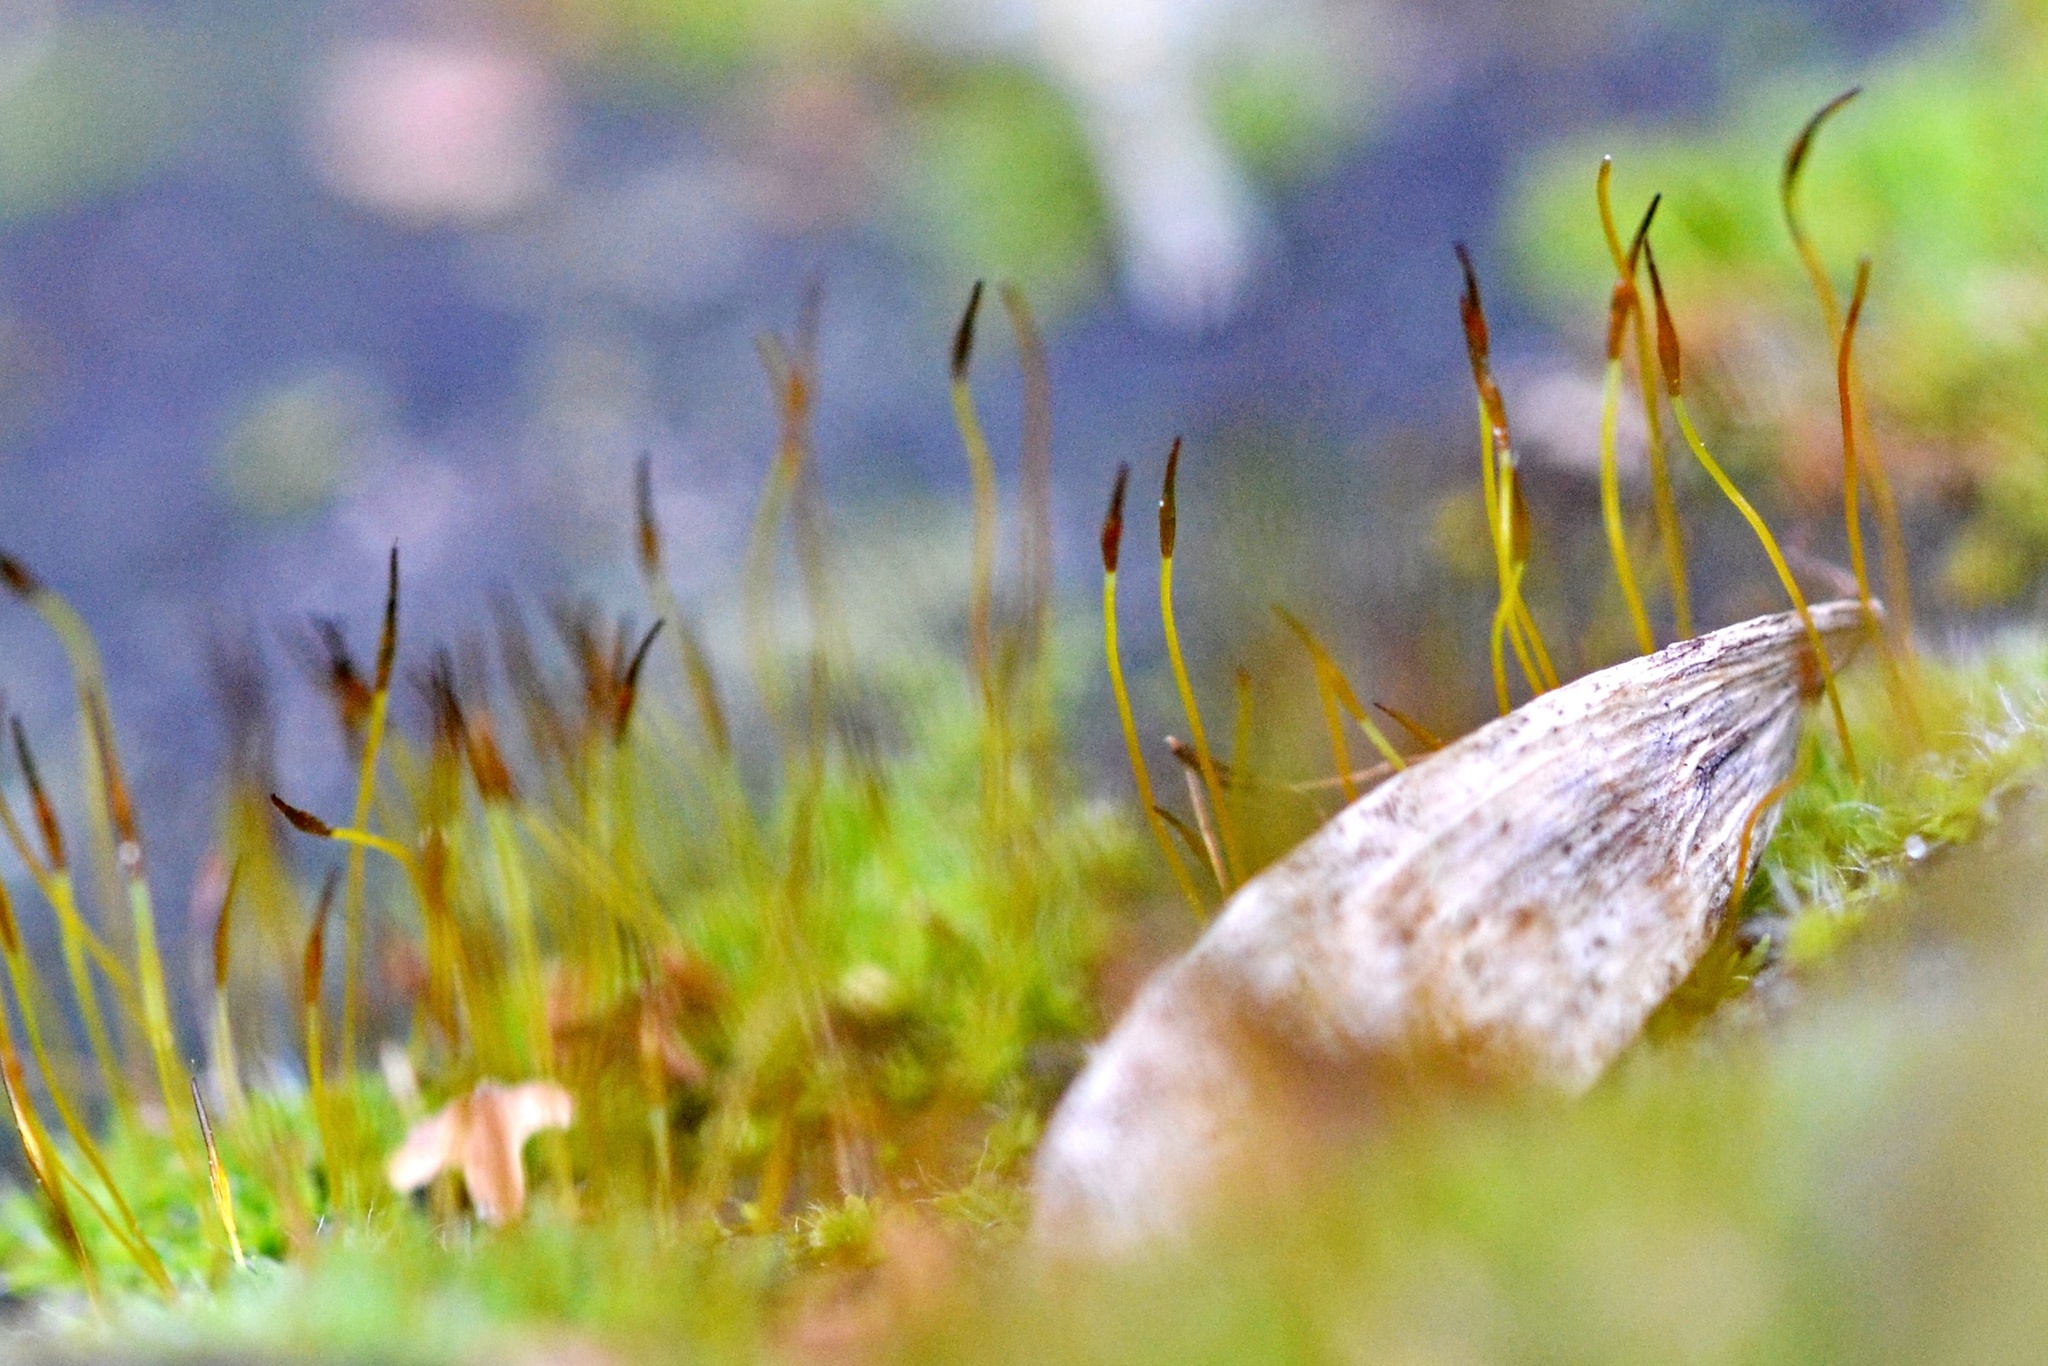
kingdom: Plantae
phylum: Bryophyta
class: Bryopsida
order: Pottiales
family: Pottiaceae
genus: Tortula
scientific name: Tortula muralis
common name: Wall screw-moss
